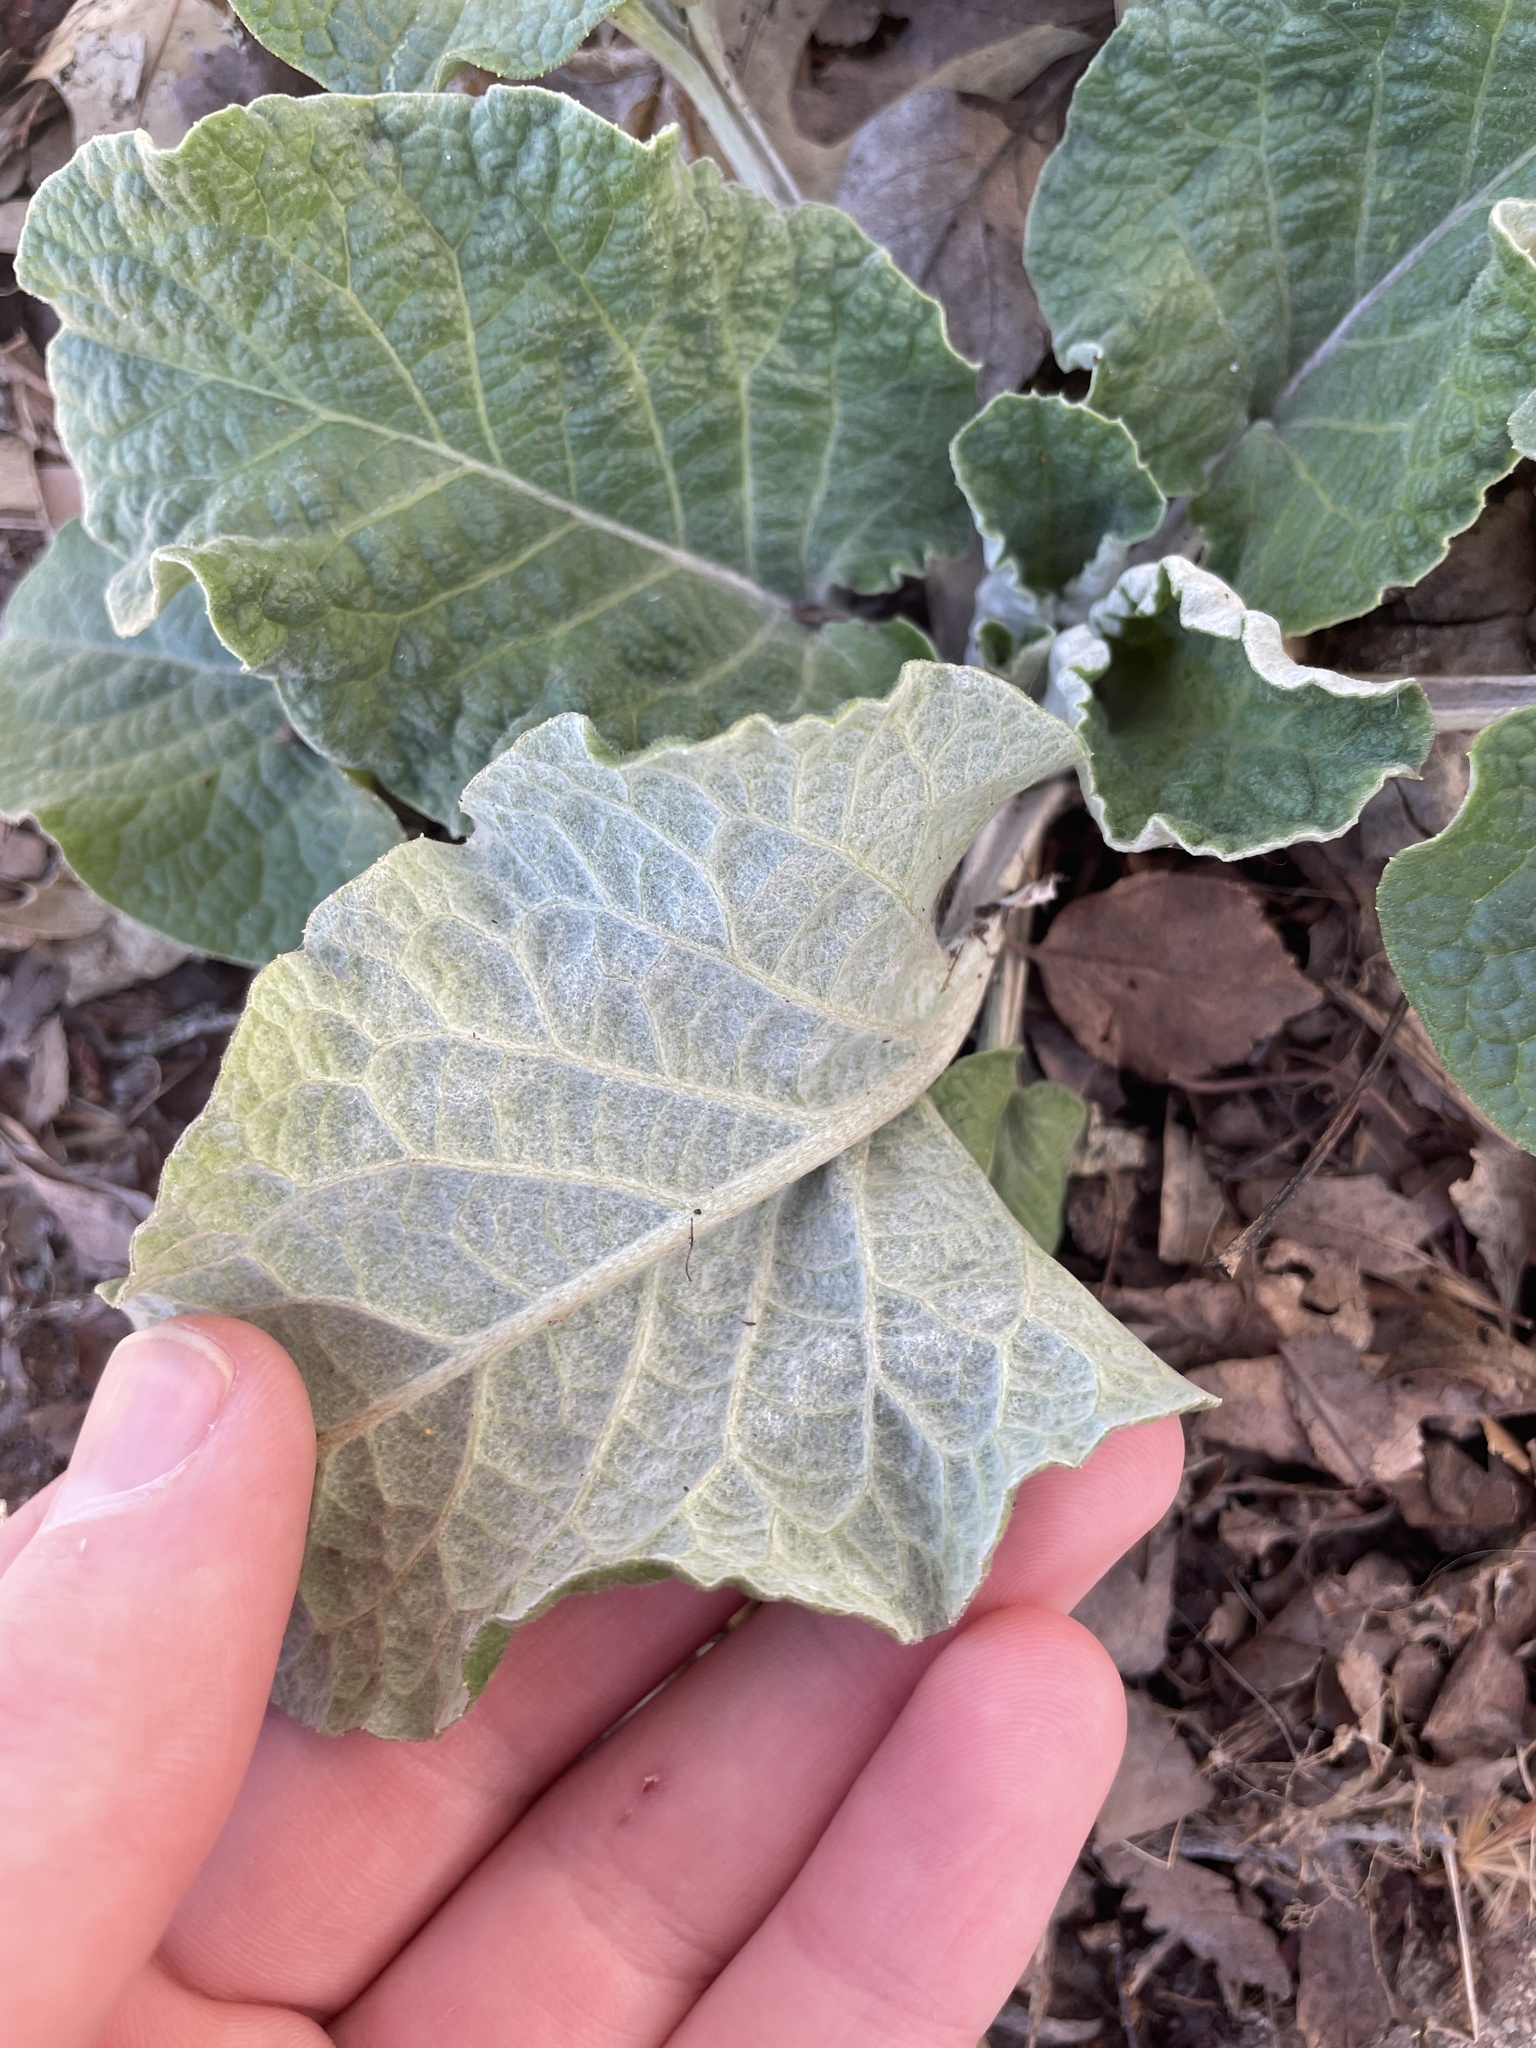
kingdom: Plantae
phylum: Tracheophyta
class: Magnoliopsida
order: Asterales
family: Asteraceae
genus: Arctium
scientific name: Arctium
